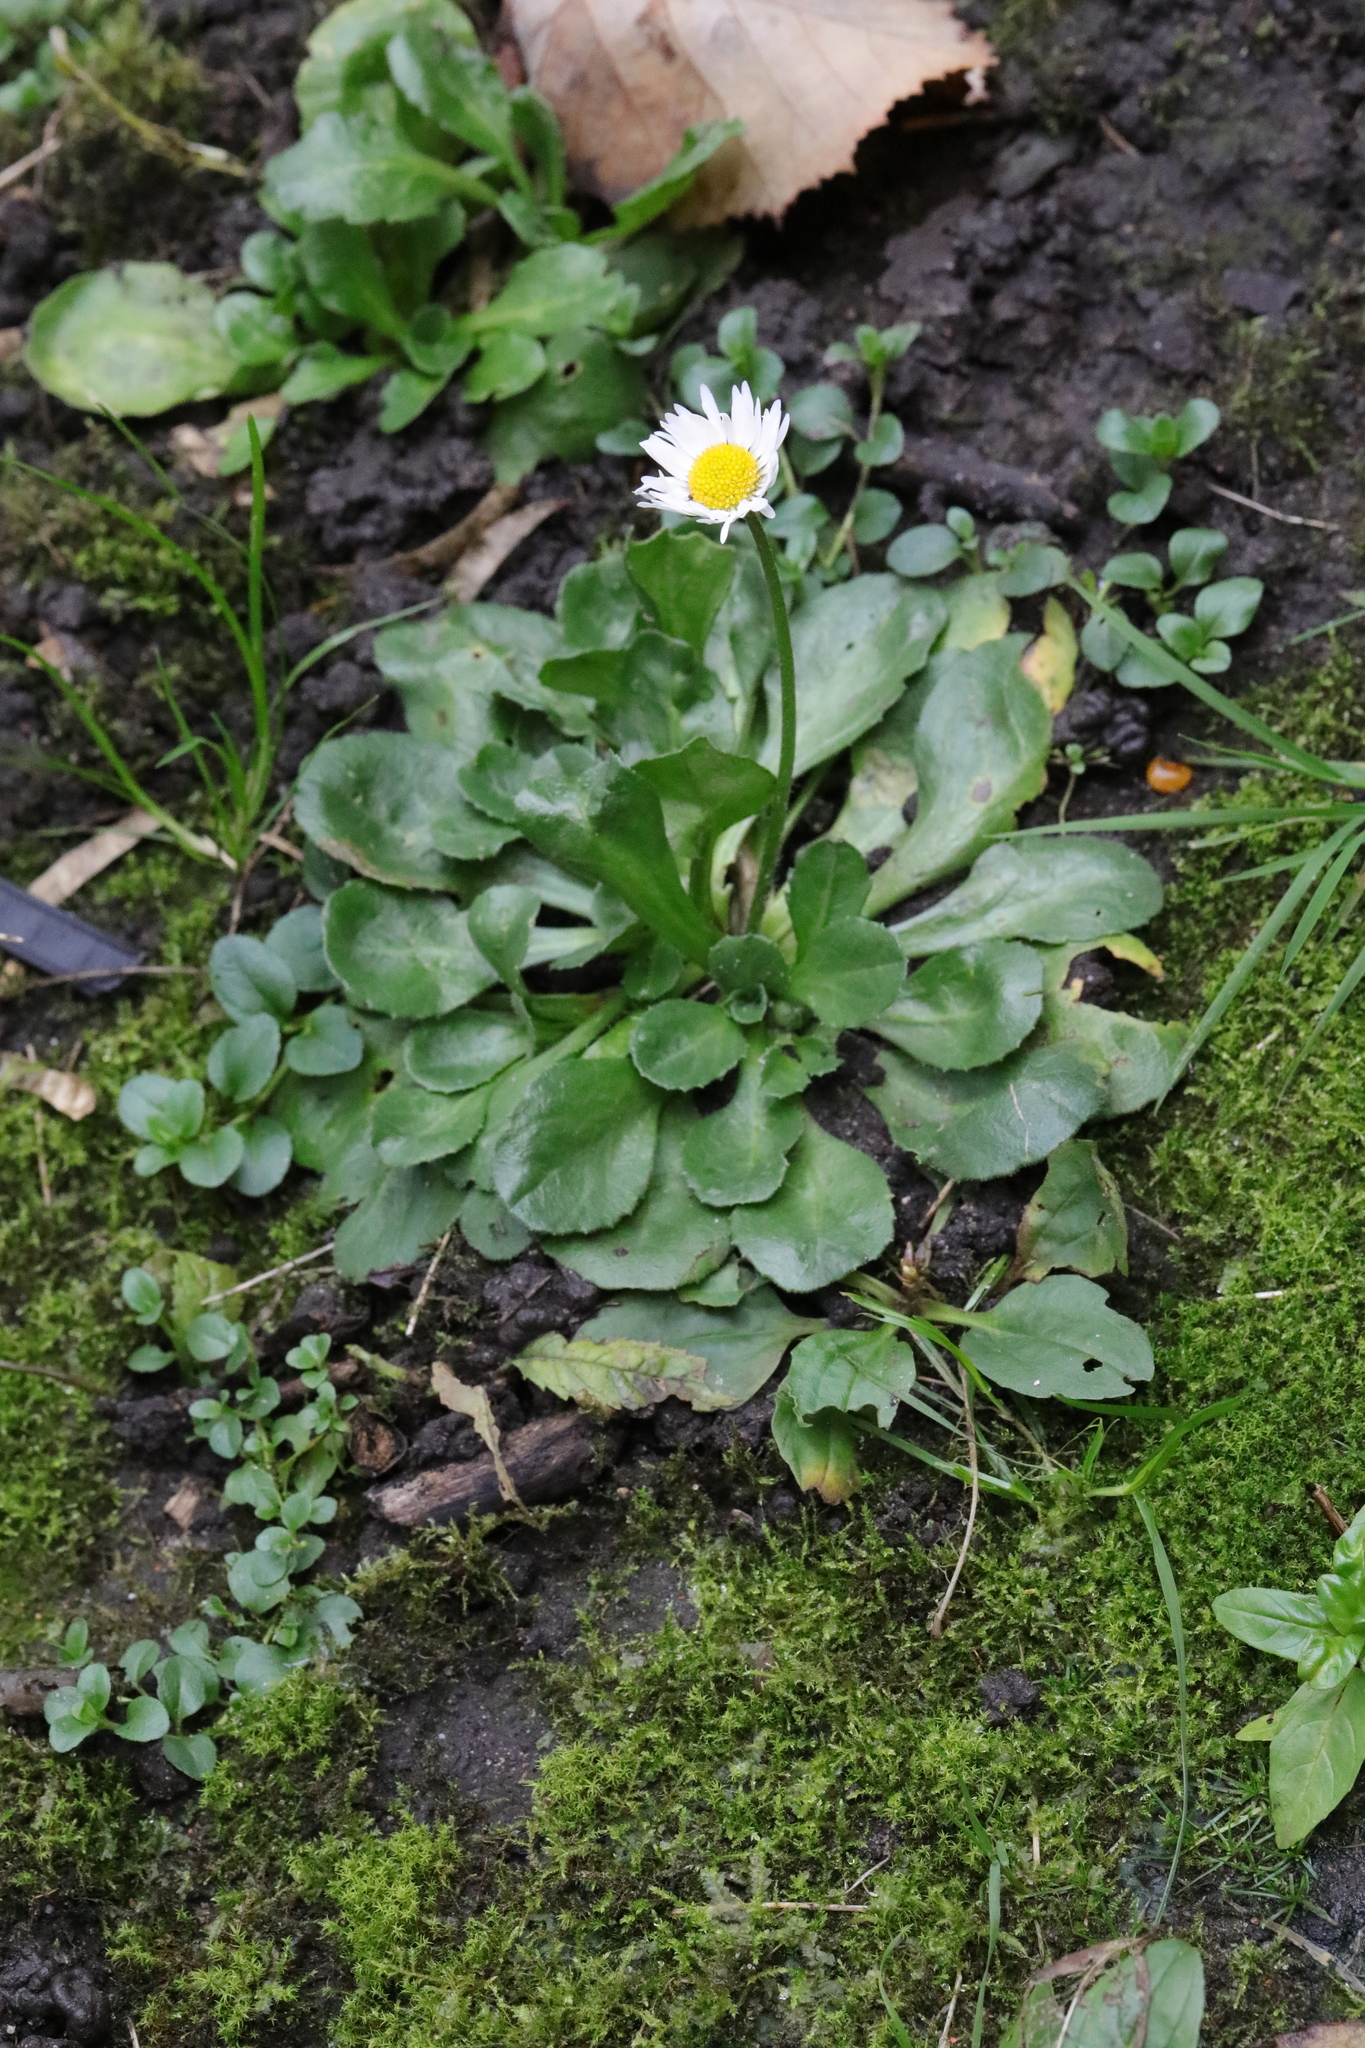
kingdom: Plantae
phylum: Tracheophyta
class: Magnoliopsida
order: Asterales
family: Asteraceae
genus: Bellis
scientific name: Bellis perennis
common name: Lawndaisy
